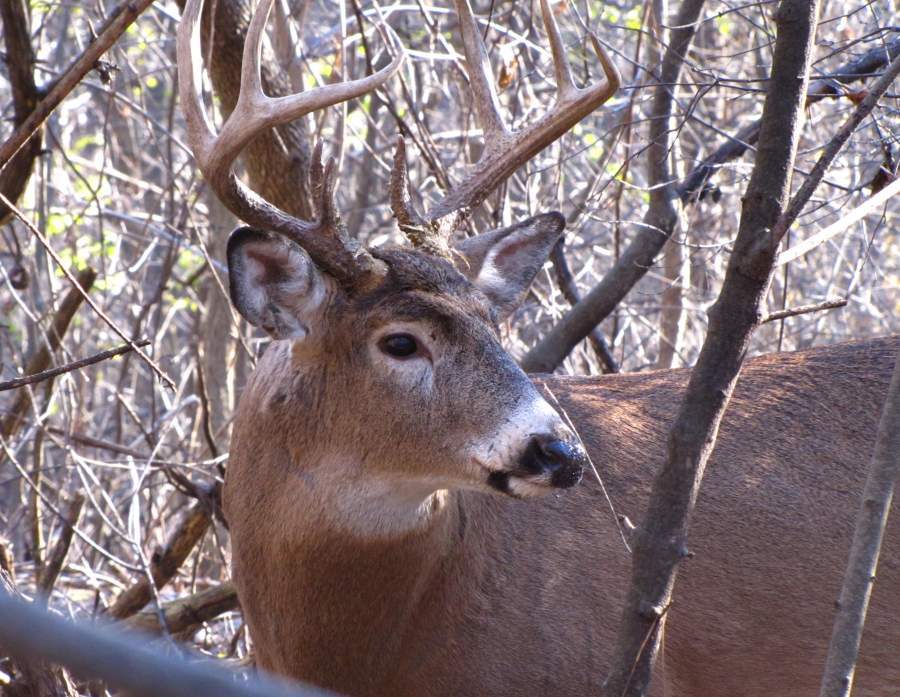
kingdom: Animalia
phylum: Chordata
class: Mammalia
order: Artiodactyla
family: Cervidae
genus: Odocoileus
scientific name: Odocoileus virginianus
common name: White-tailed deer
